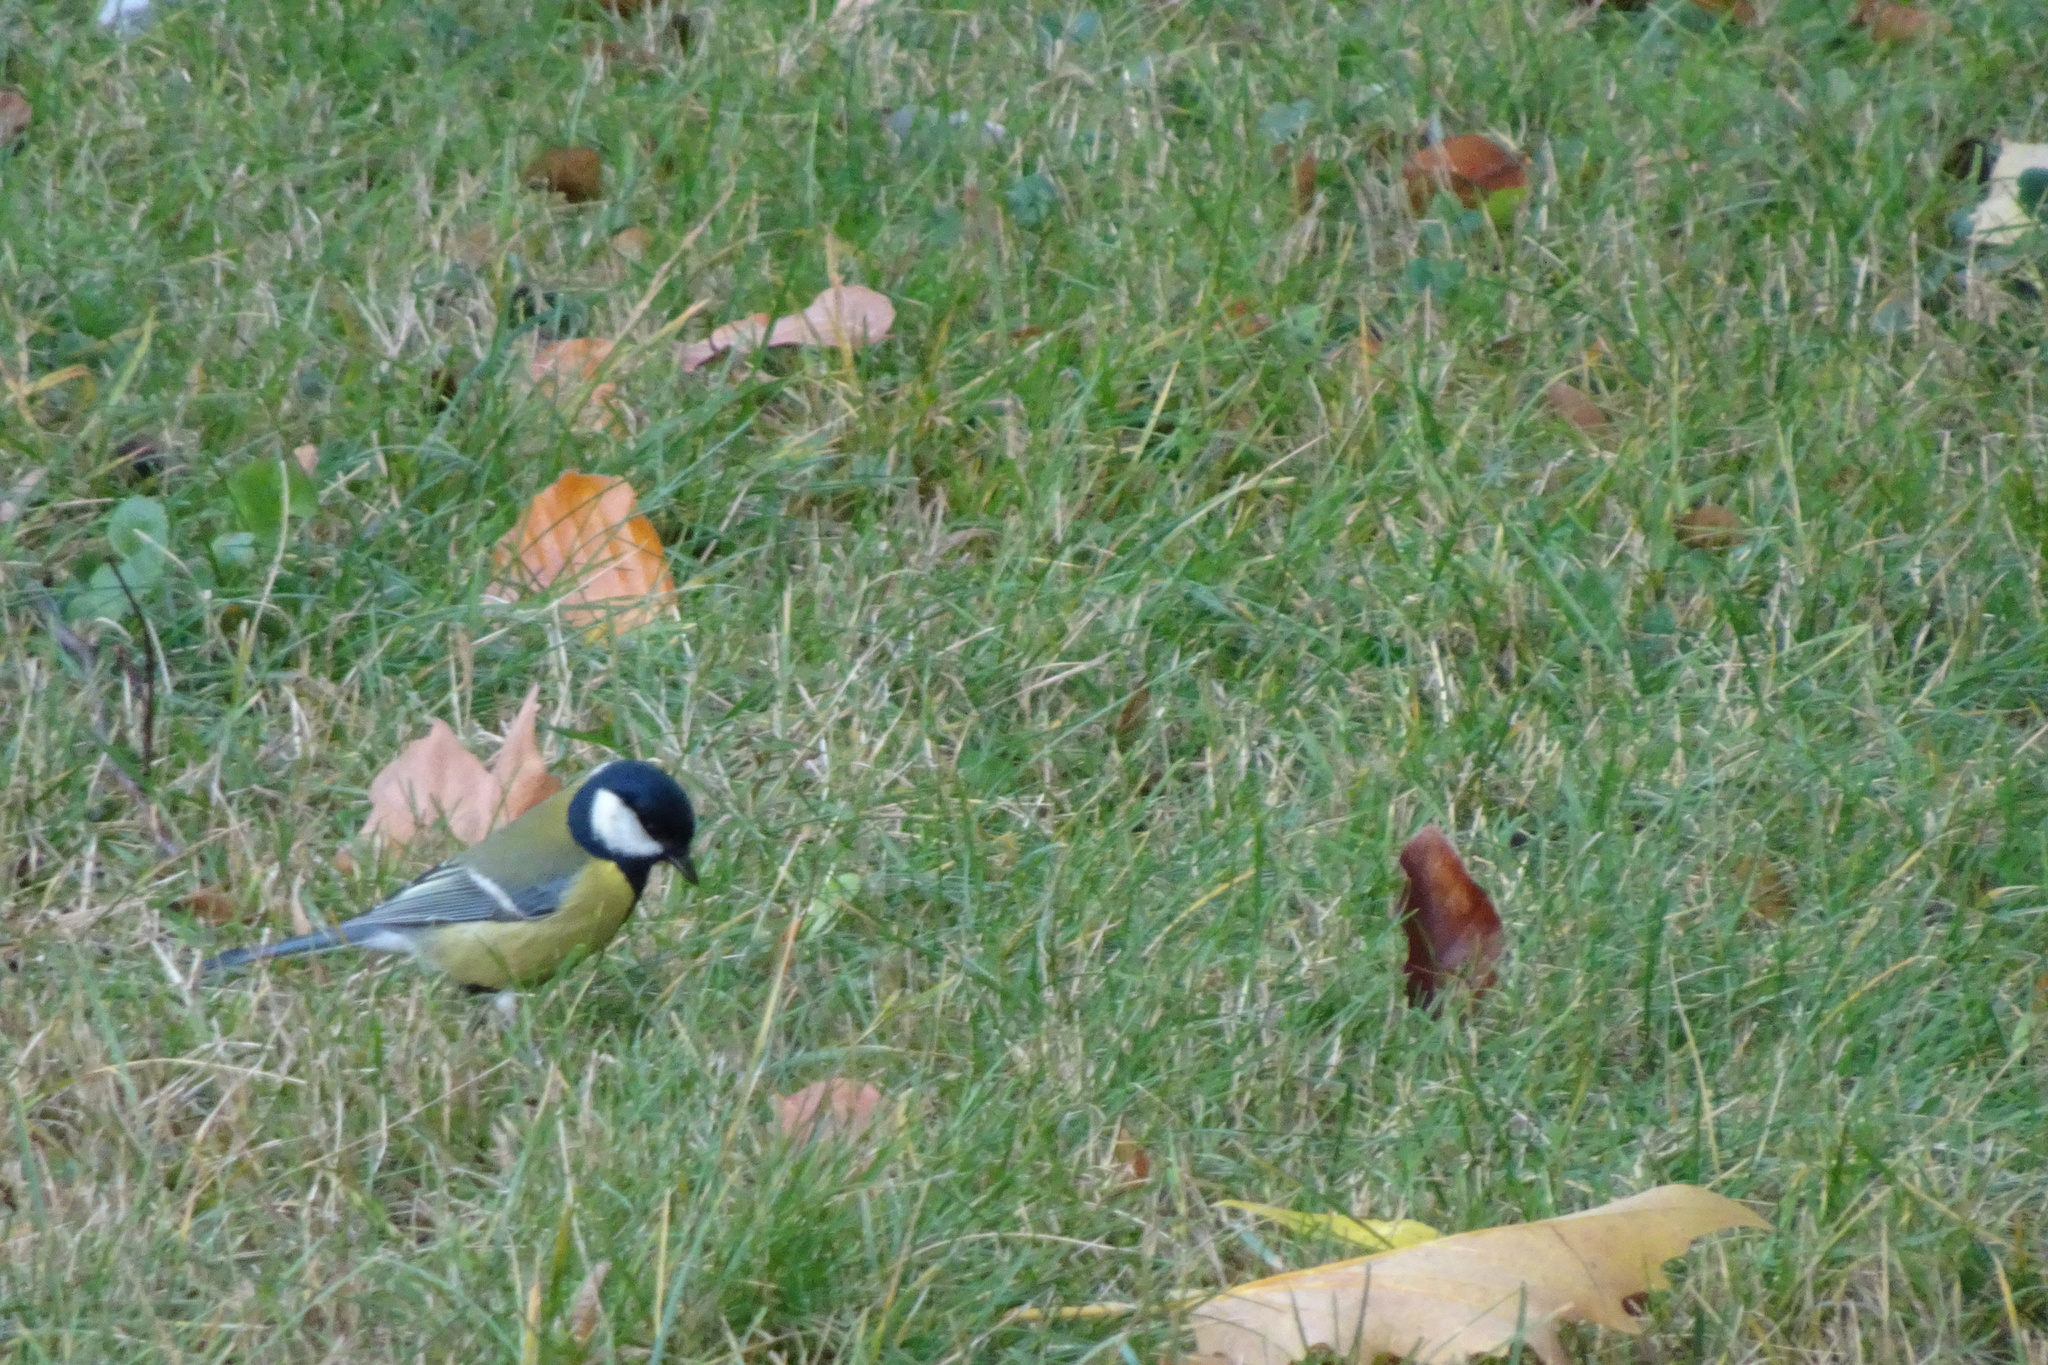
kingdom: Animalia
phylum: Chordata
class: Aves
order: Passeriformes
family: Paridae
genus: Parus
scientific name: Parus major
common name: Great tit
